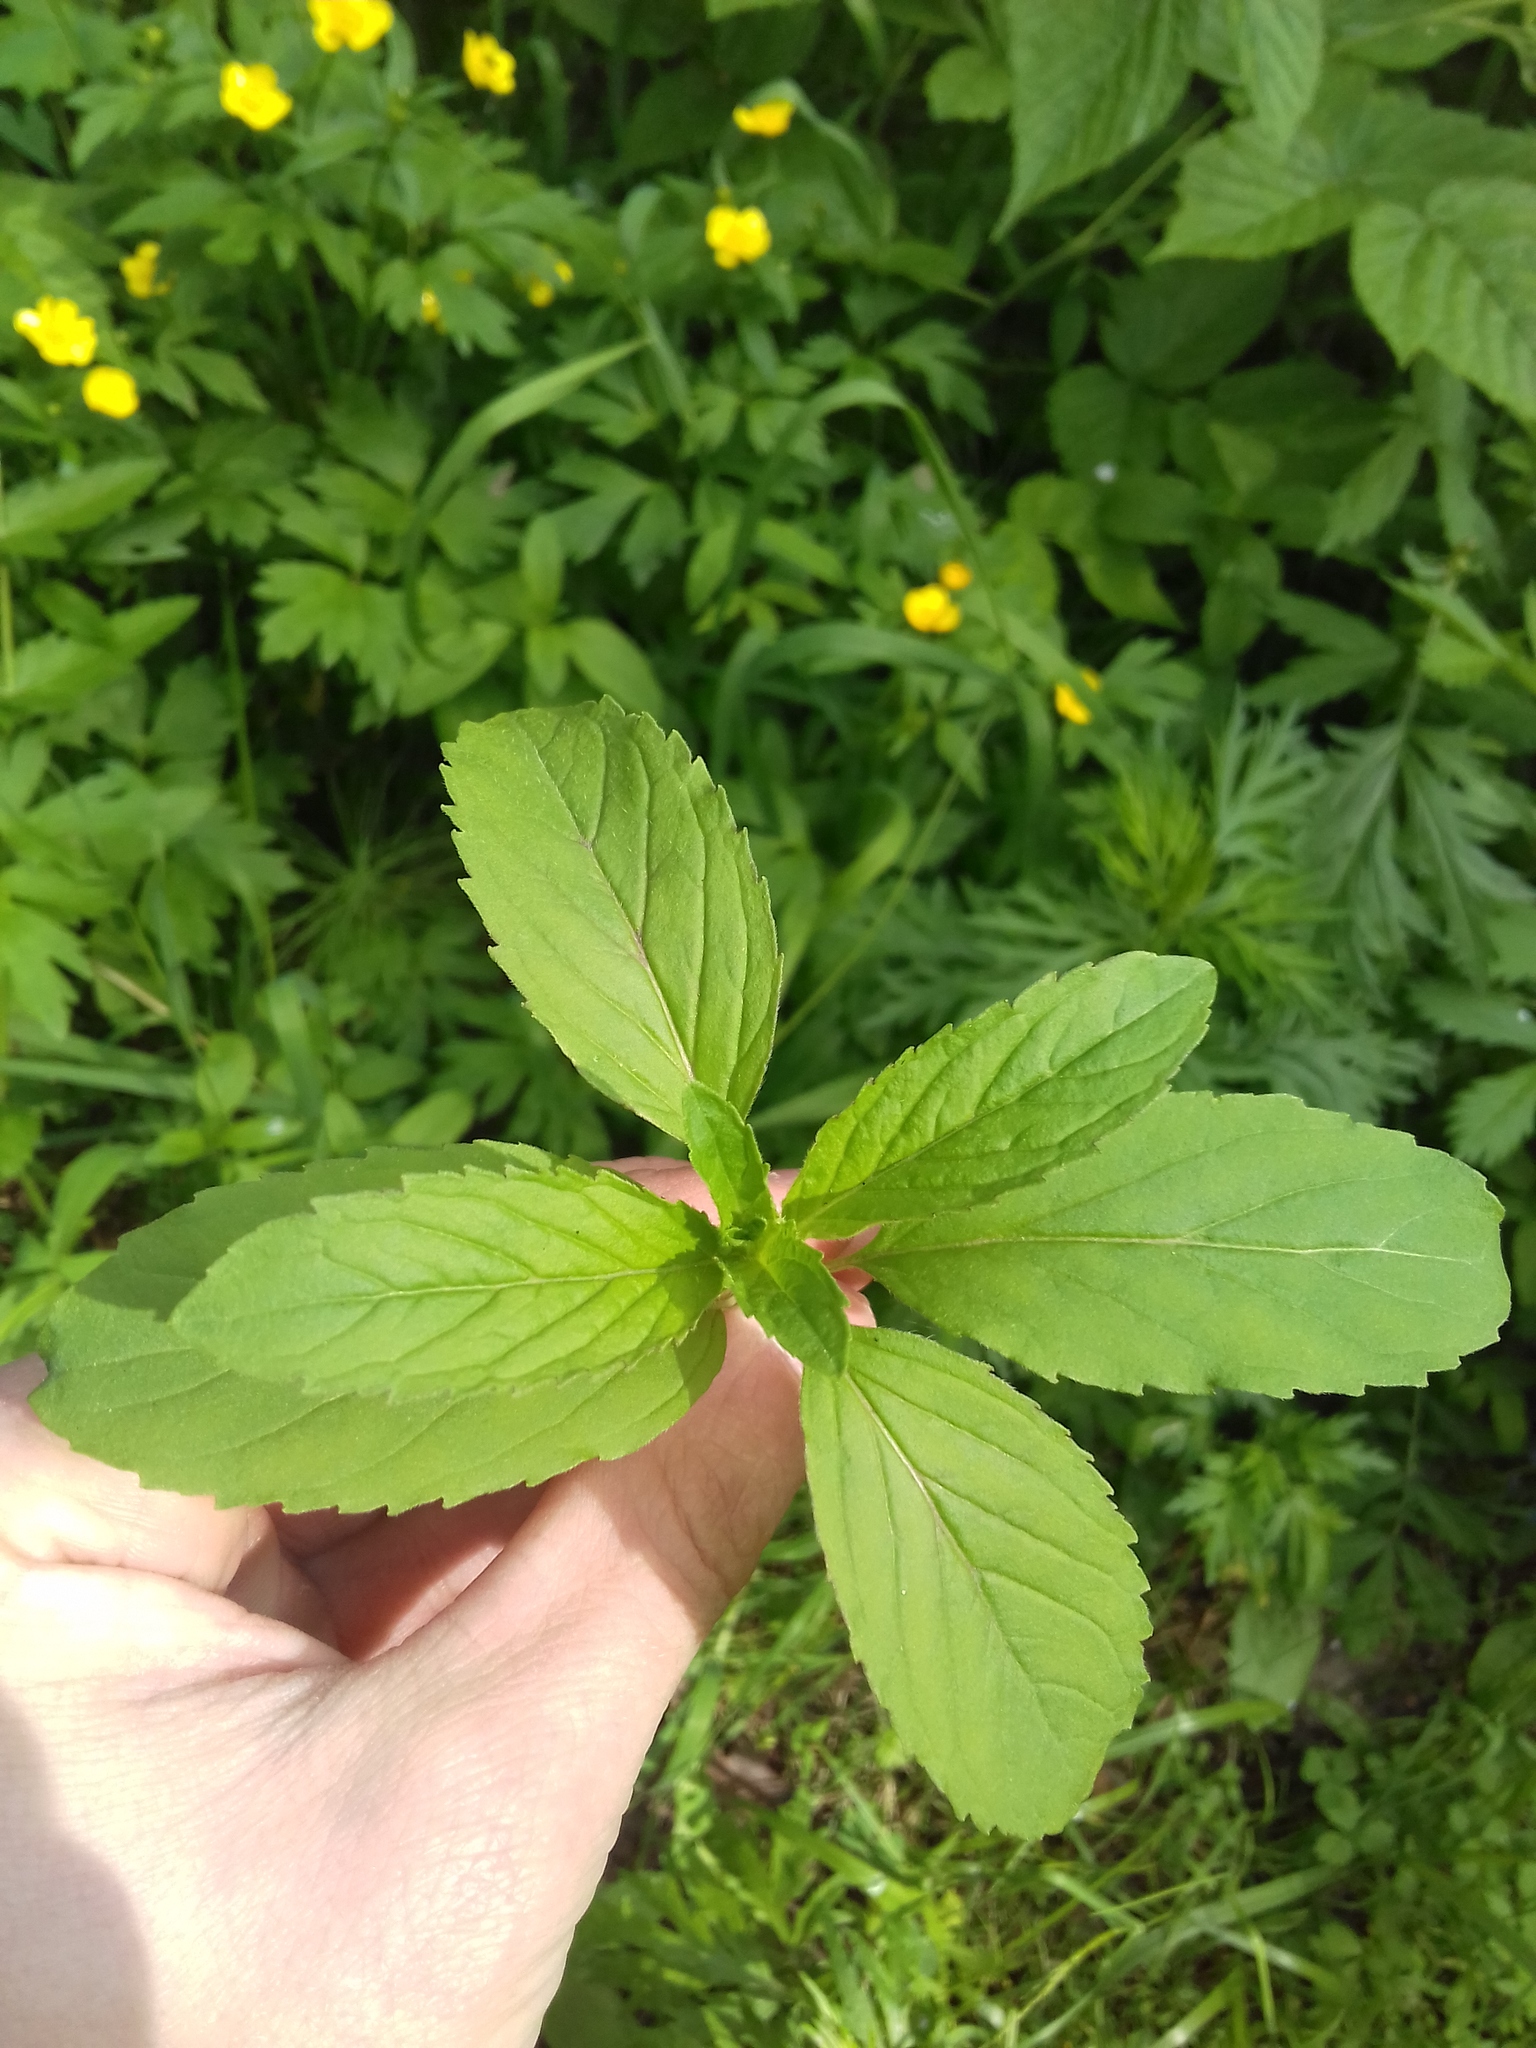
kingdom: Plantae
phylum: Tracheophyta
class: Magnoliopsida
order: Lamiales
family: Lamiaceae
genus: Mentha
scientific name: Mentha arvensis
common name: Corn mint
